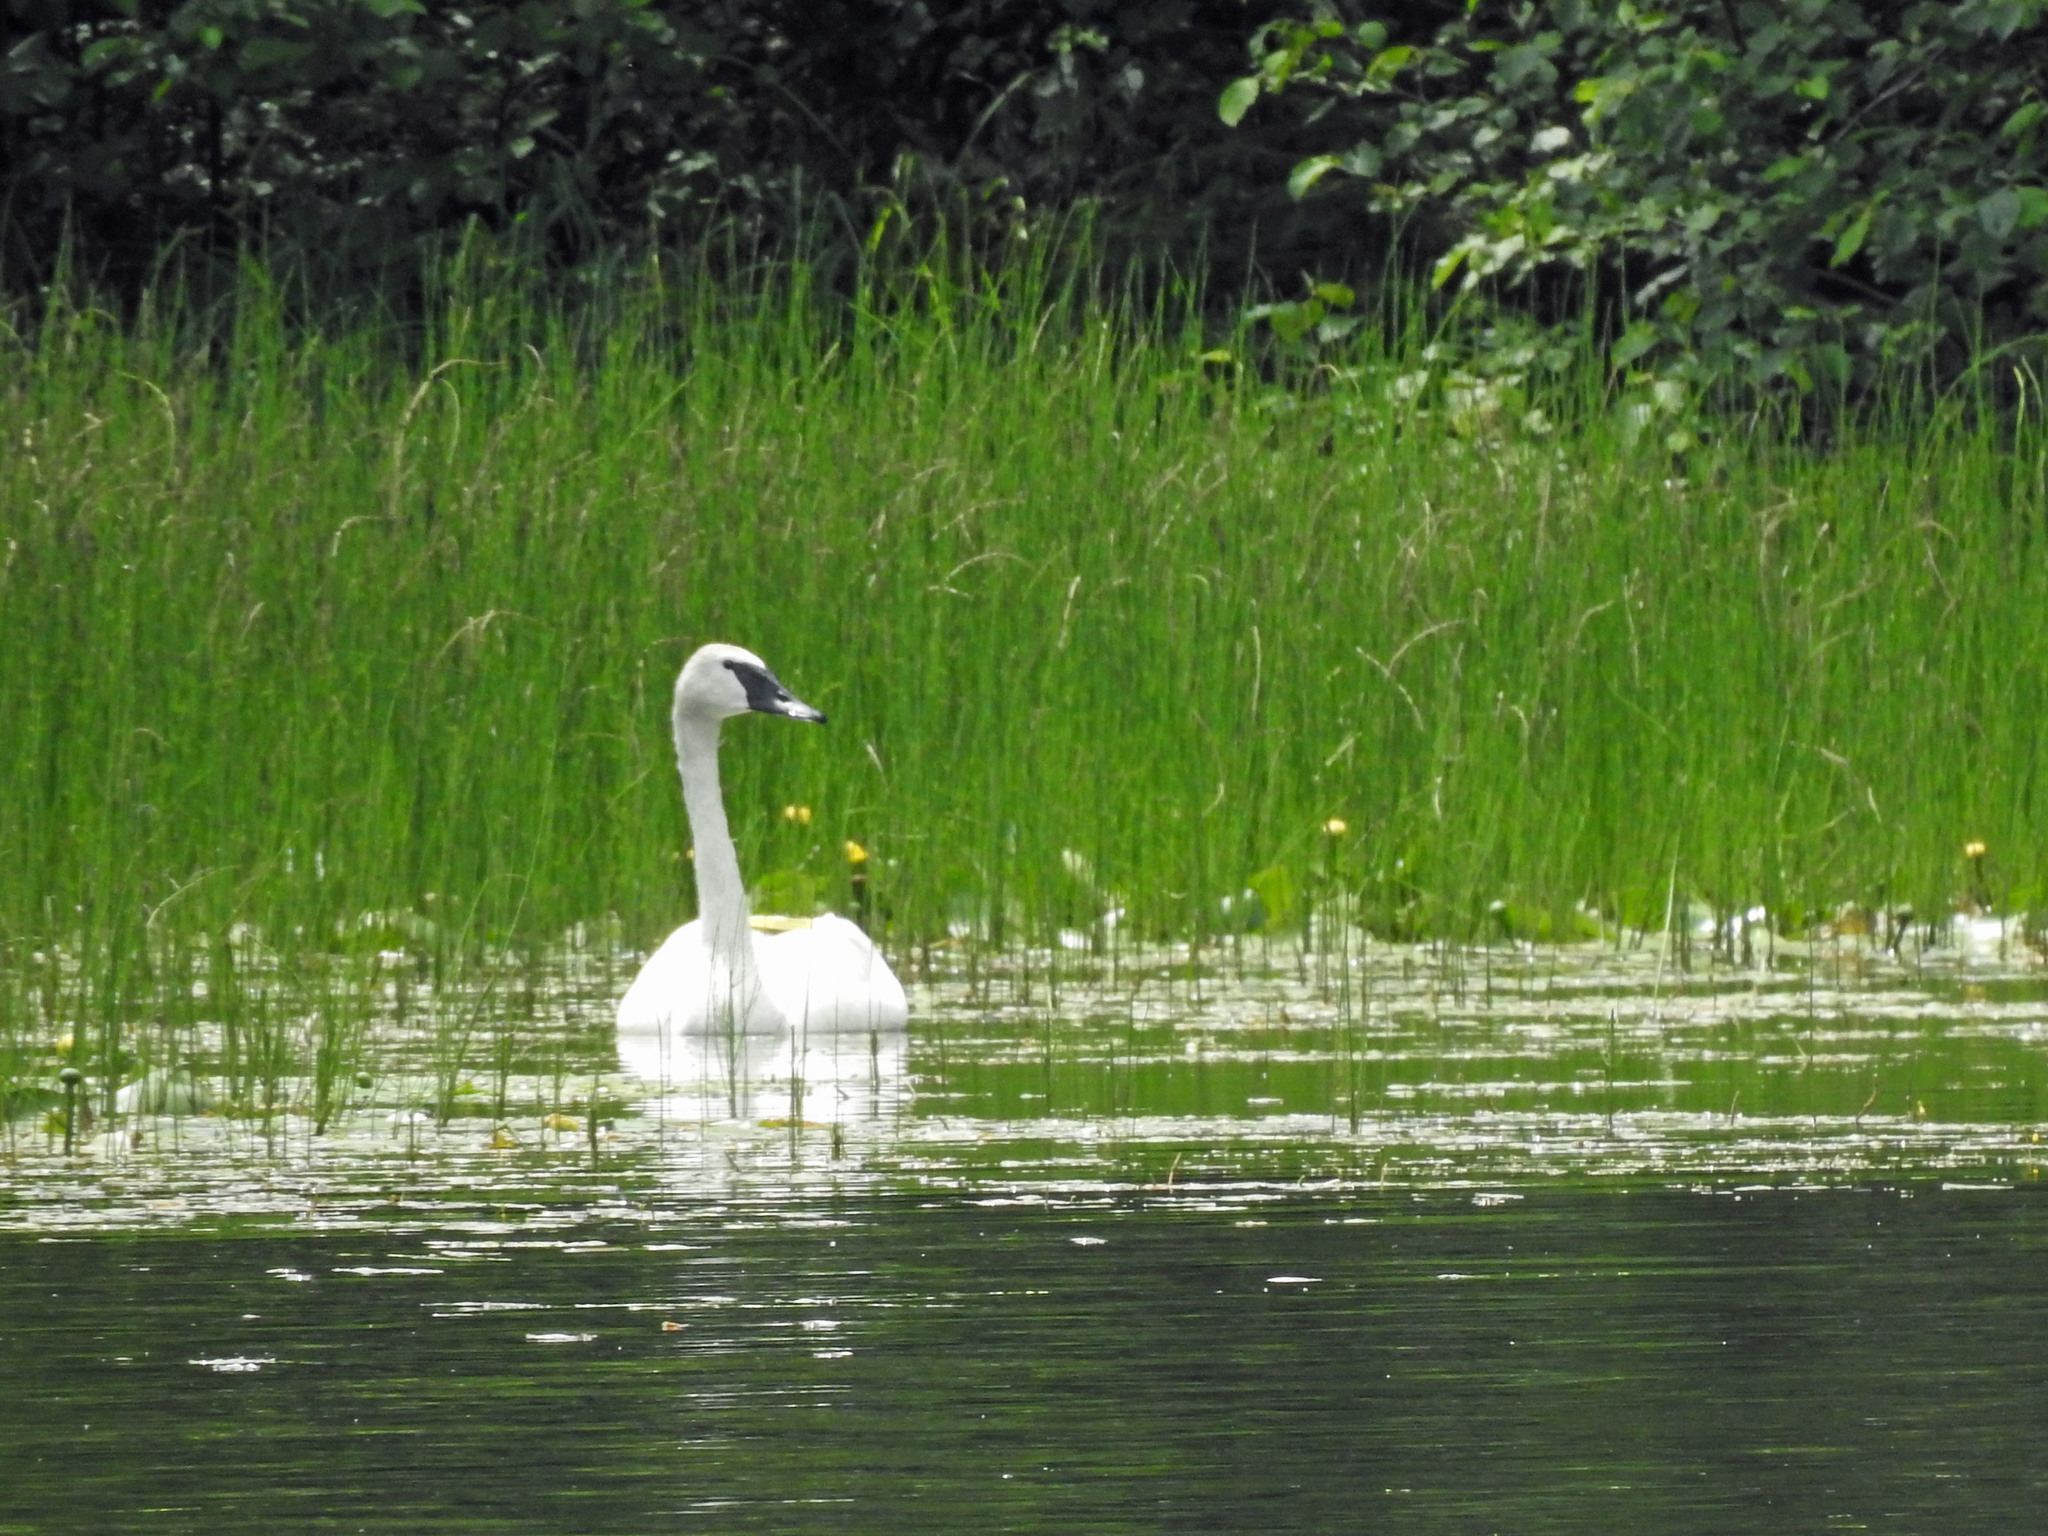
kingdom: Animalia
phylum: Chordata
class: Aves
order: Anseriformes
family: Anatidae
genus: Cygnus
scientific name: Cygnus buccinator
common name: Trumpeter swan
